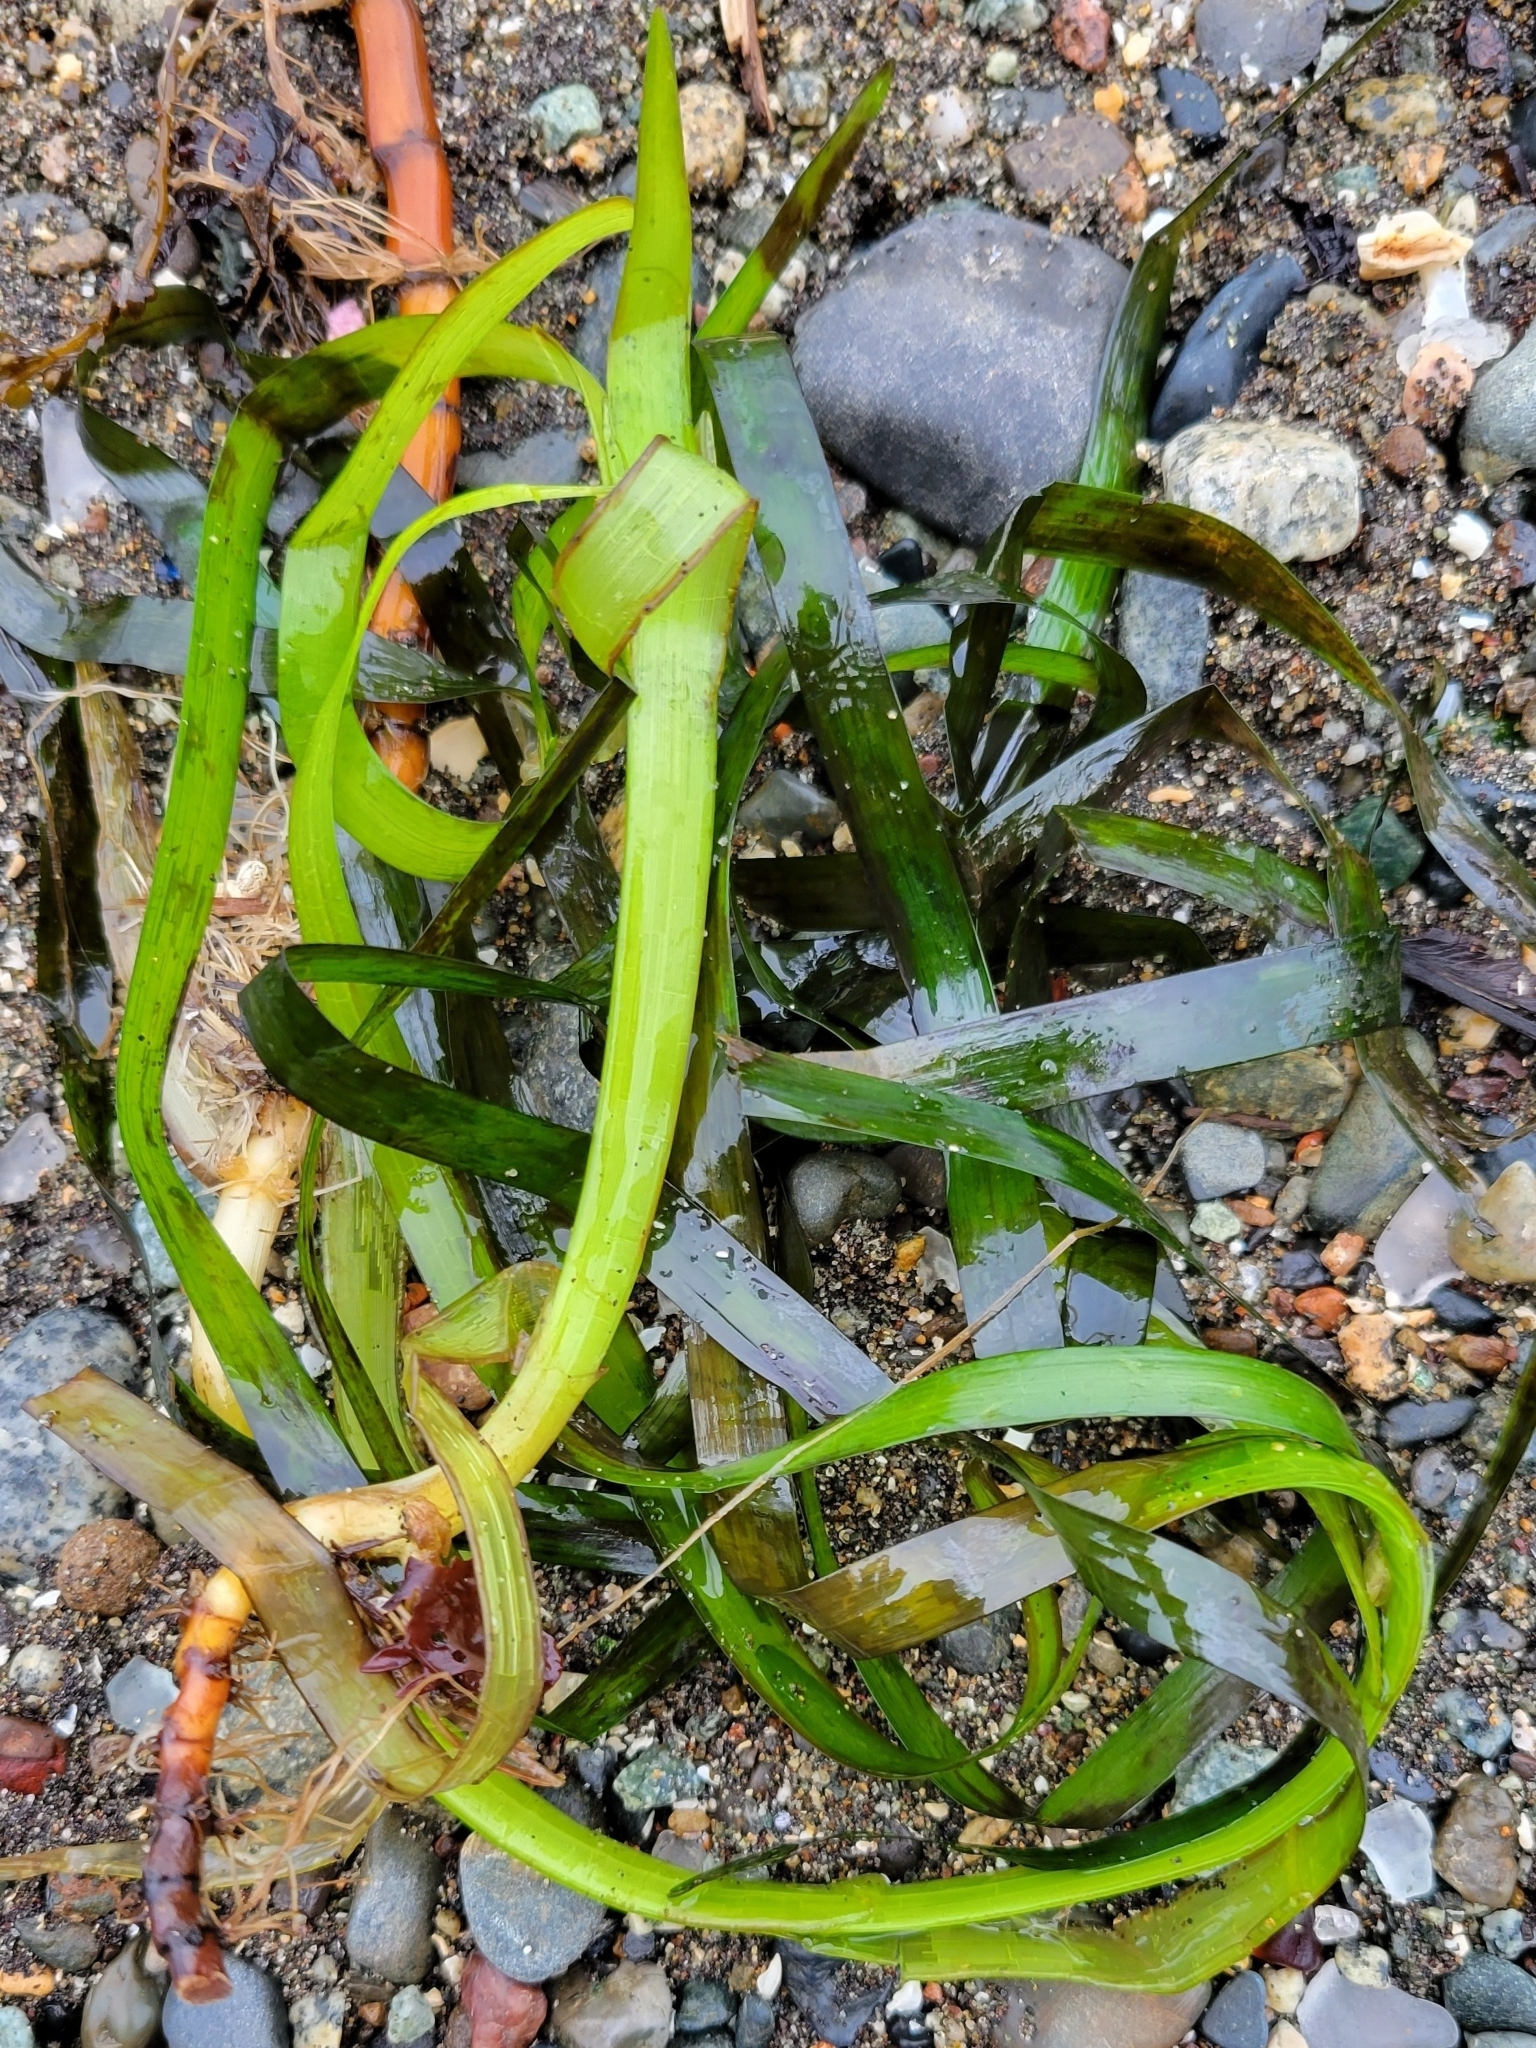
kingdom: Plantae
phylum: Tracheophyta
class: Liliopsida
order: Alismatales
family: Zosteraceae
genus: Zostera
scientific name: Zostera marina
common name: Eelgrass
